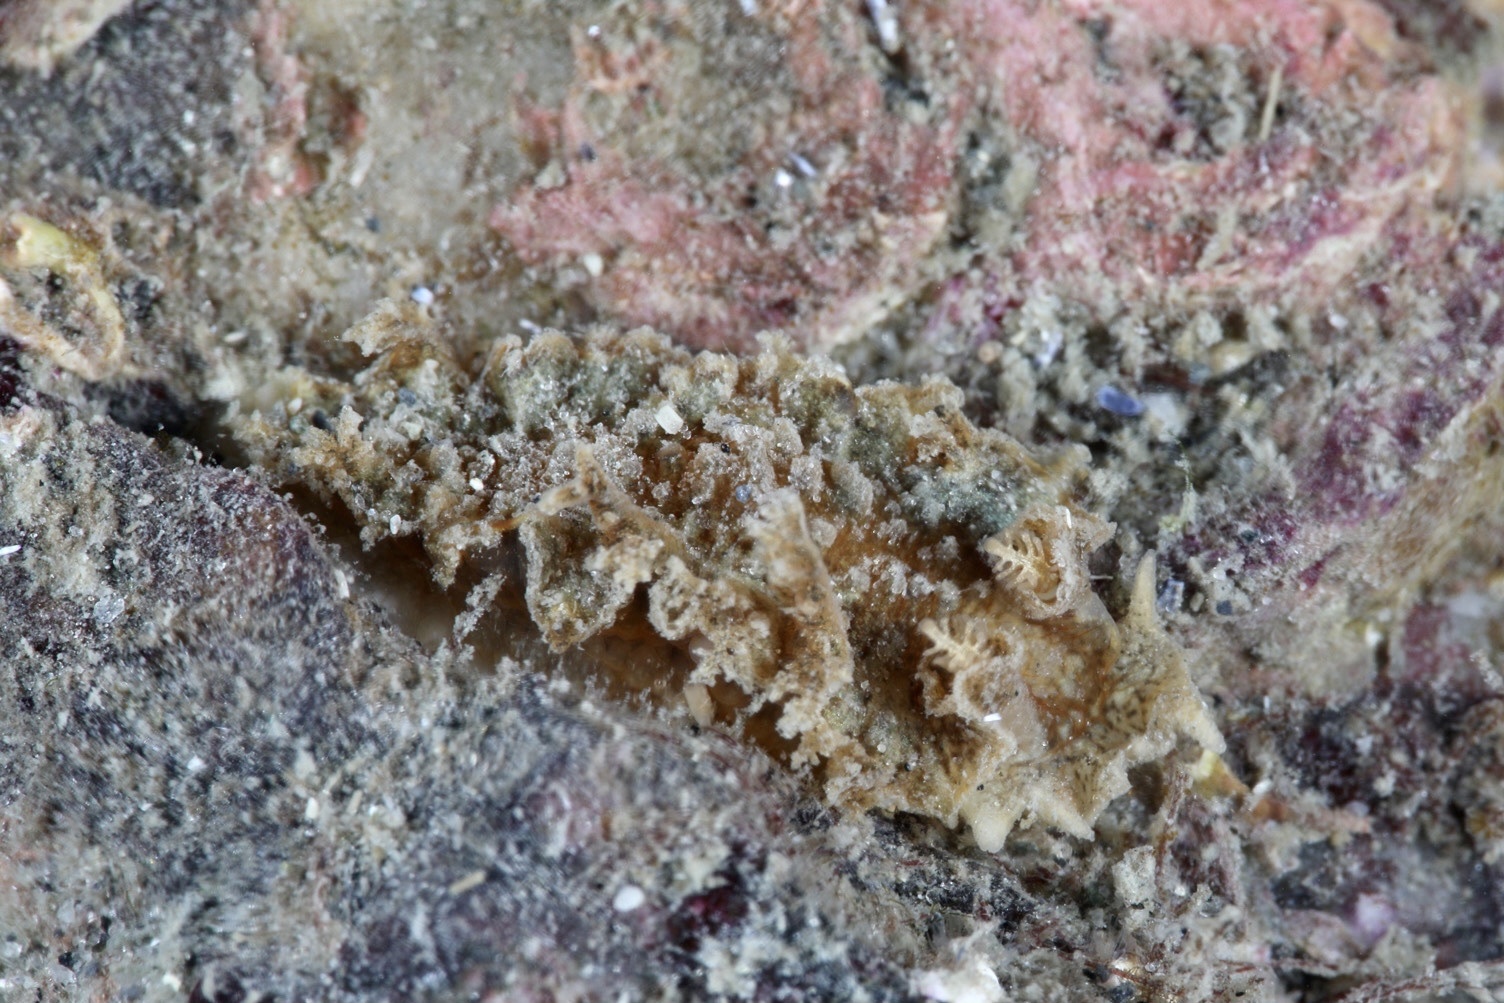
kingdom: Animalia
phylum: Mollusca
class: Gastropoda
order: Nudibranchia
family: Lomanotidae
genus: Lomanotus
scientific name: Lomanotus marmoratus
